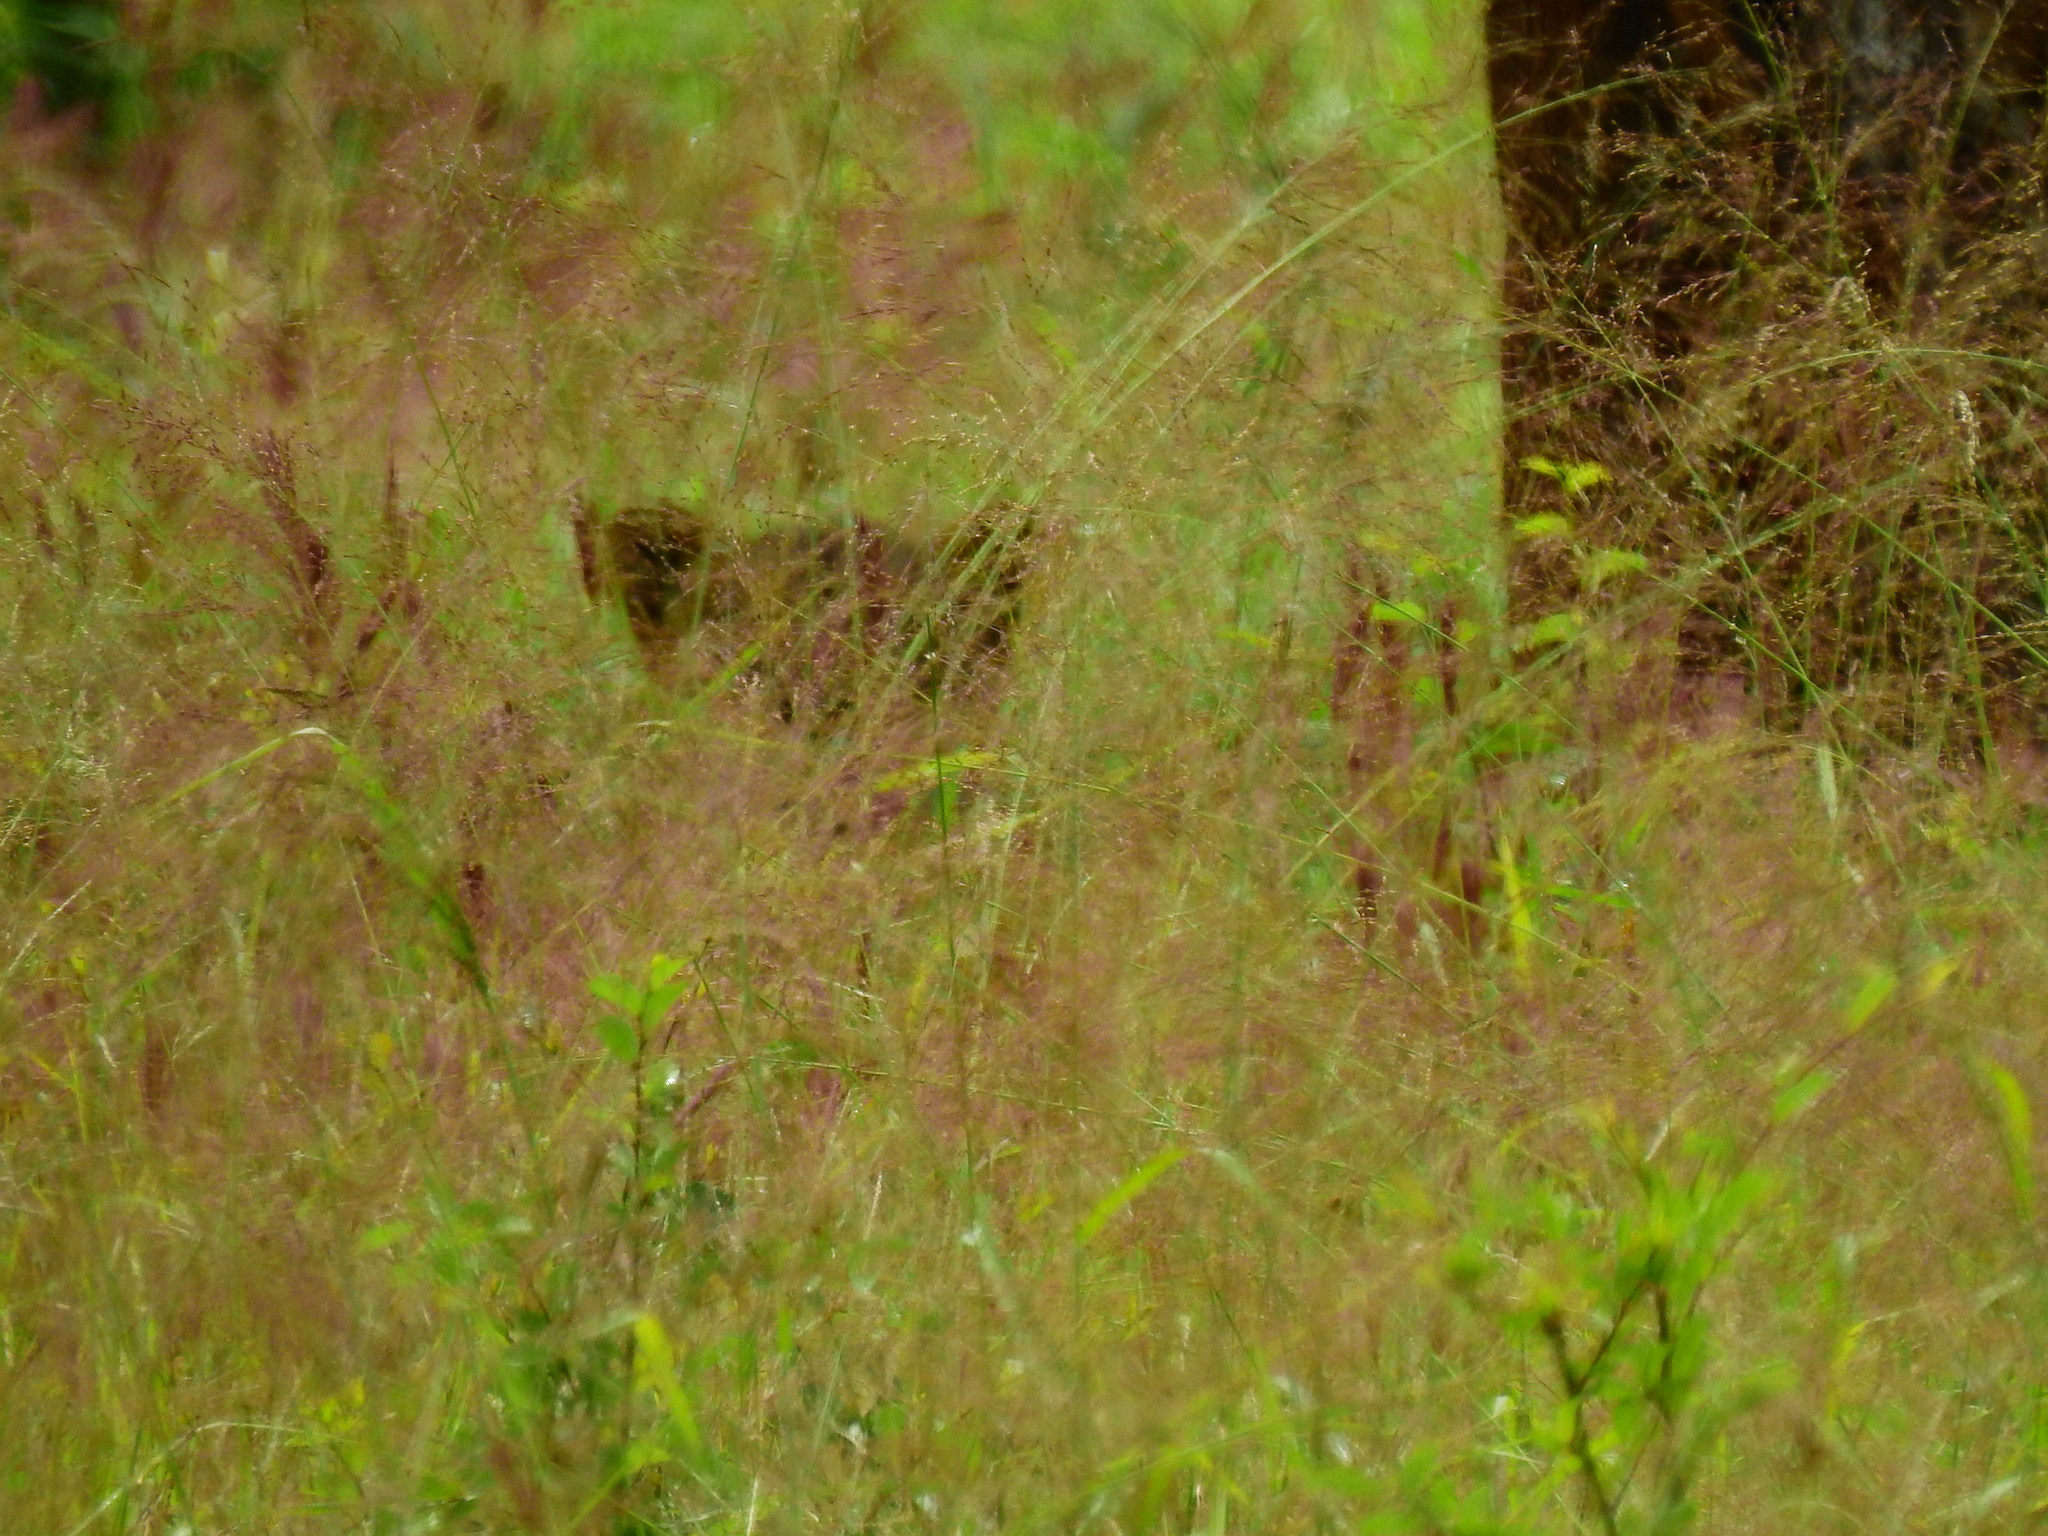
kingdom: Animalia
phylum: Chordata
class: Mammalia
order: Carnivora
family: Felidae
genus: Panthera
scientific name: Panthera leo
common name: Lion
